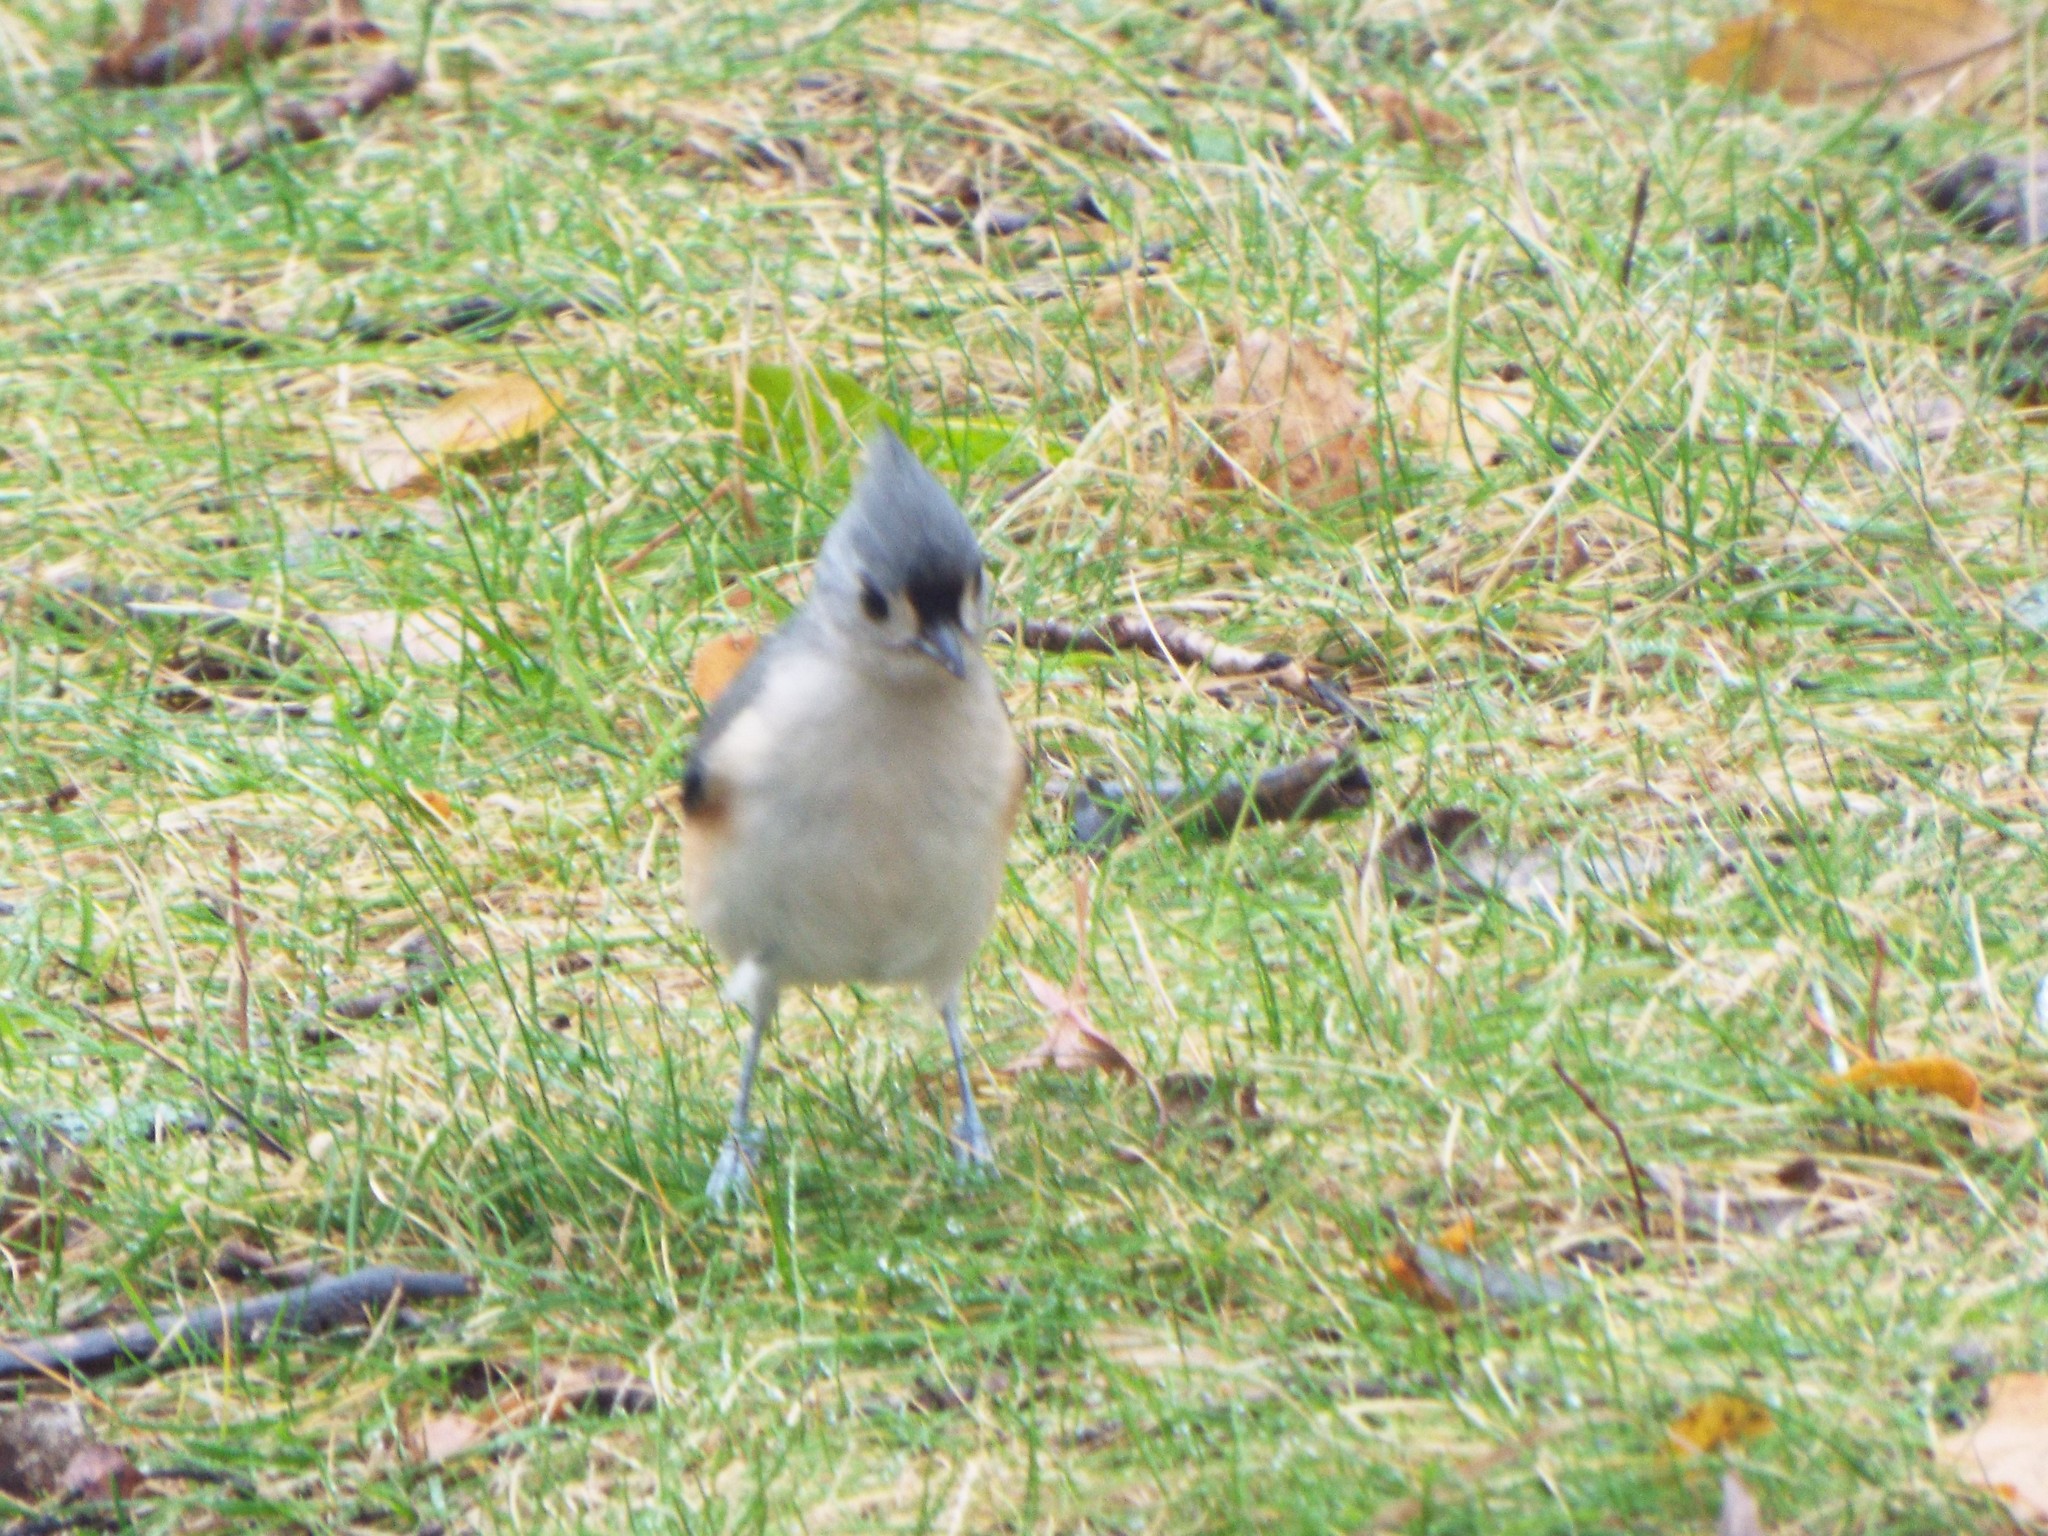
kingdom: Animalia
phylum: Chordata
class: Aves
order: Passeriformes
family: Paridae
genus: Baeolophus
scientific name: Baeolophus bicolor
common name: Tufted titmouse
